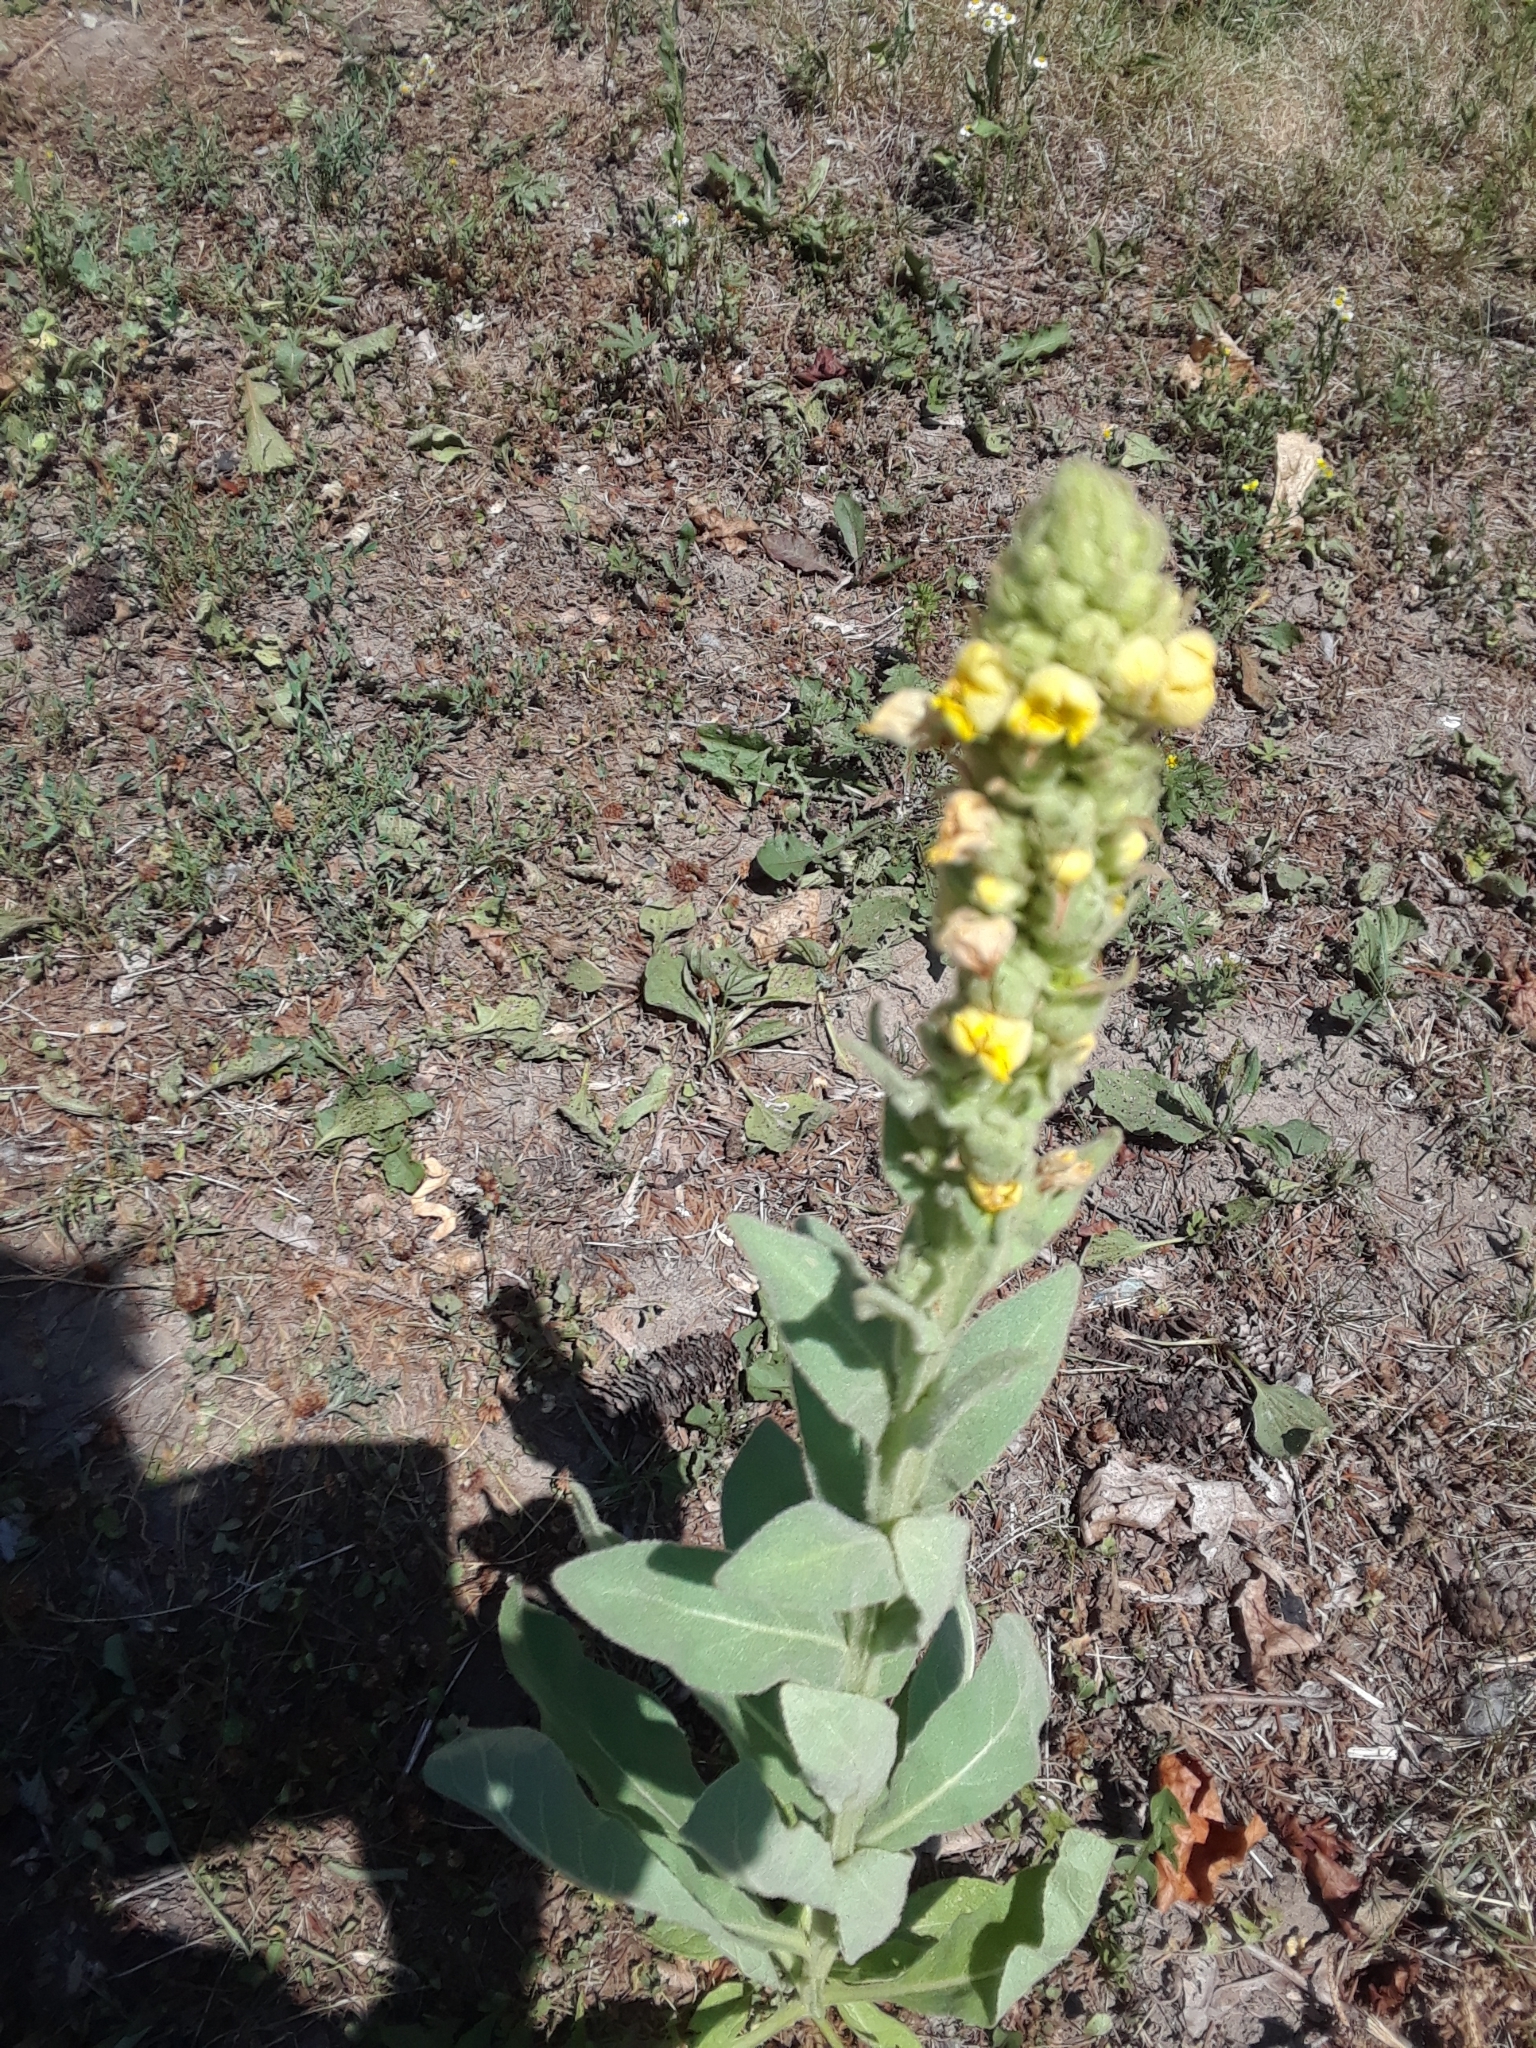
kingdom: Plantae
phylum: Tracheophyta
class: Magnoliopsida
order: Lamiales
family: Scrophulariaceae
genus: Verbascum
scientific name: Verbascum thapsus
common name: Common mullein
